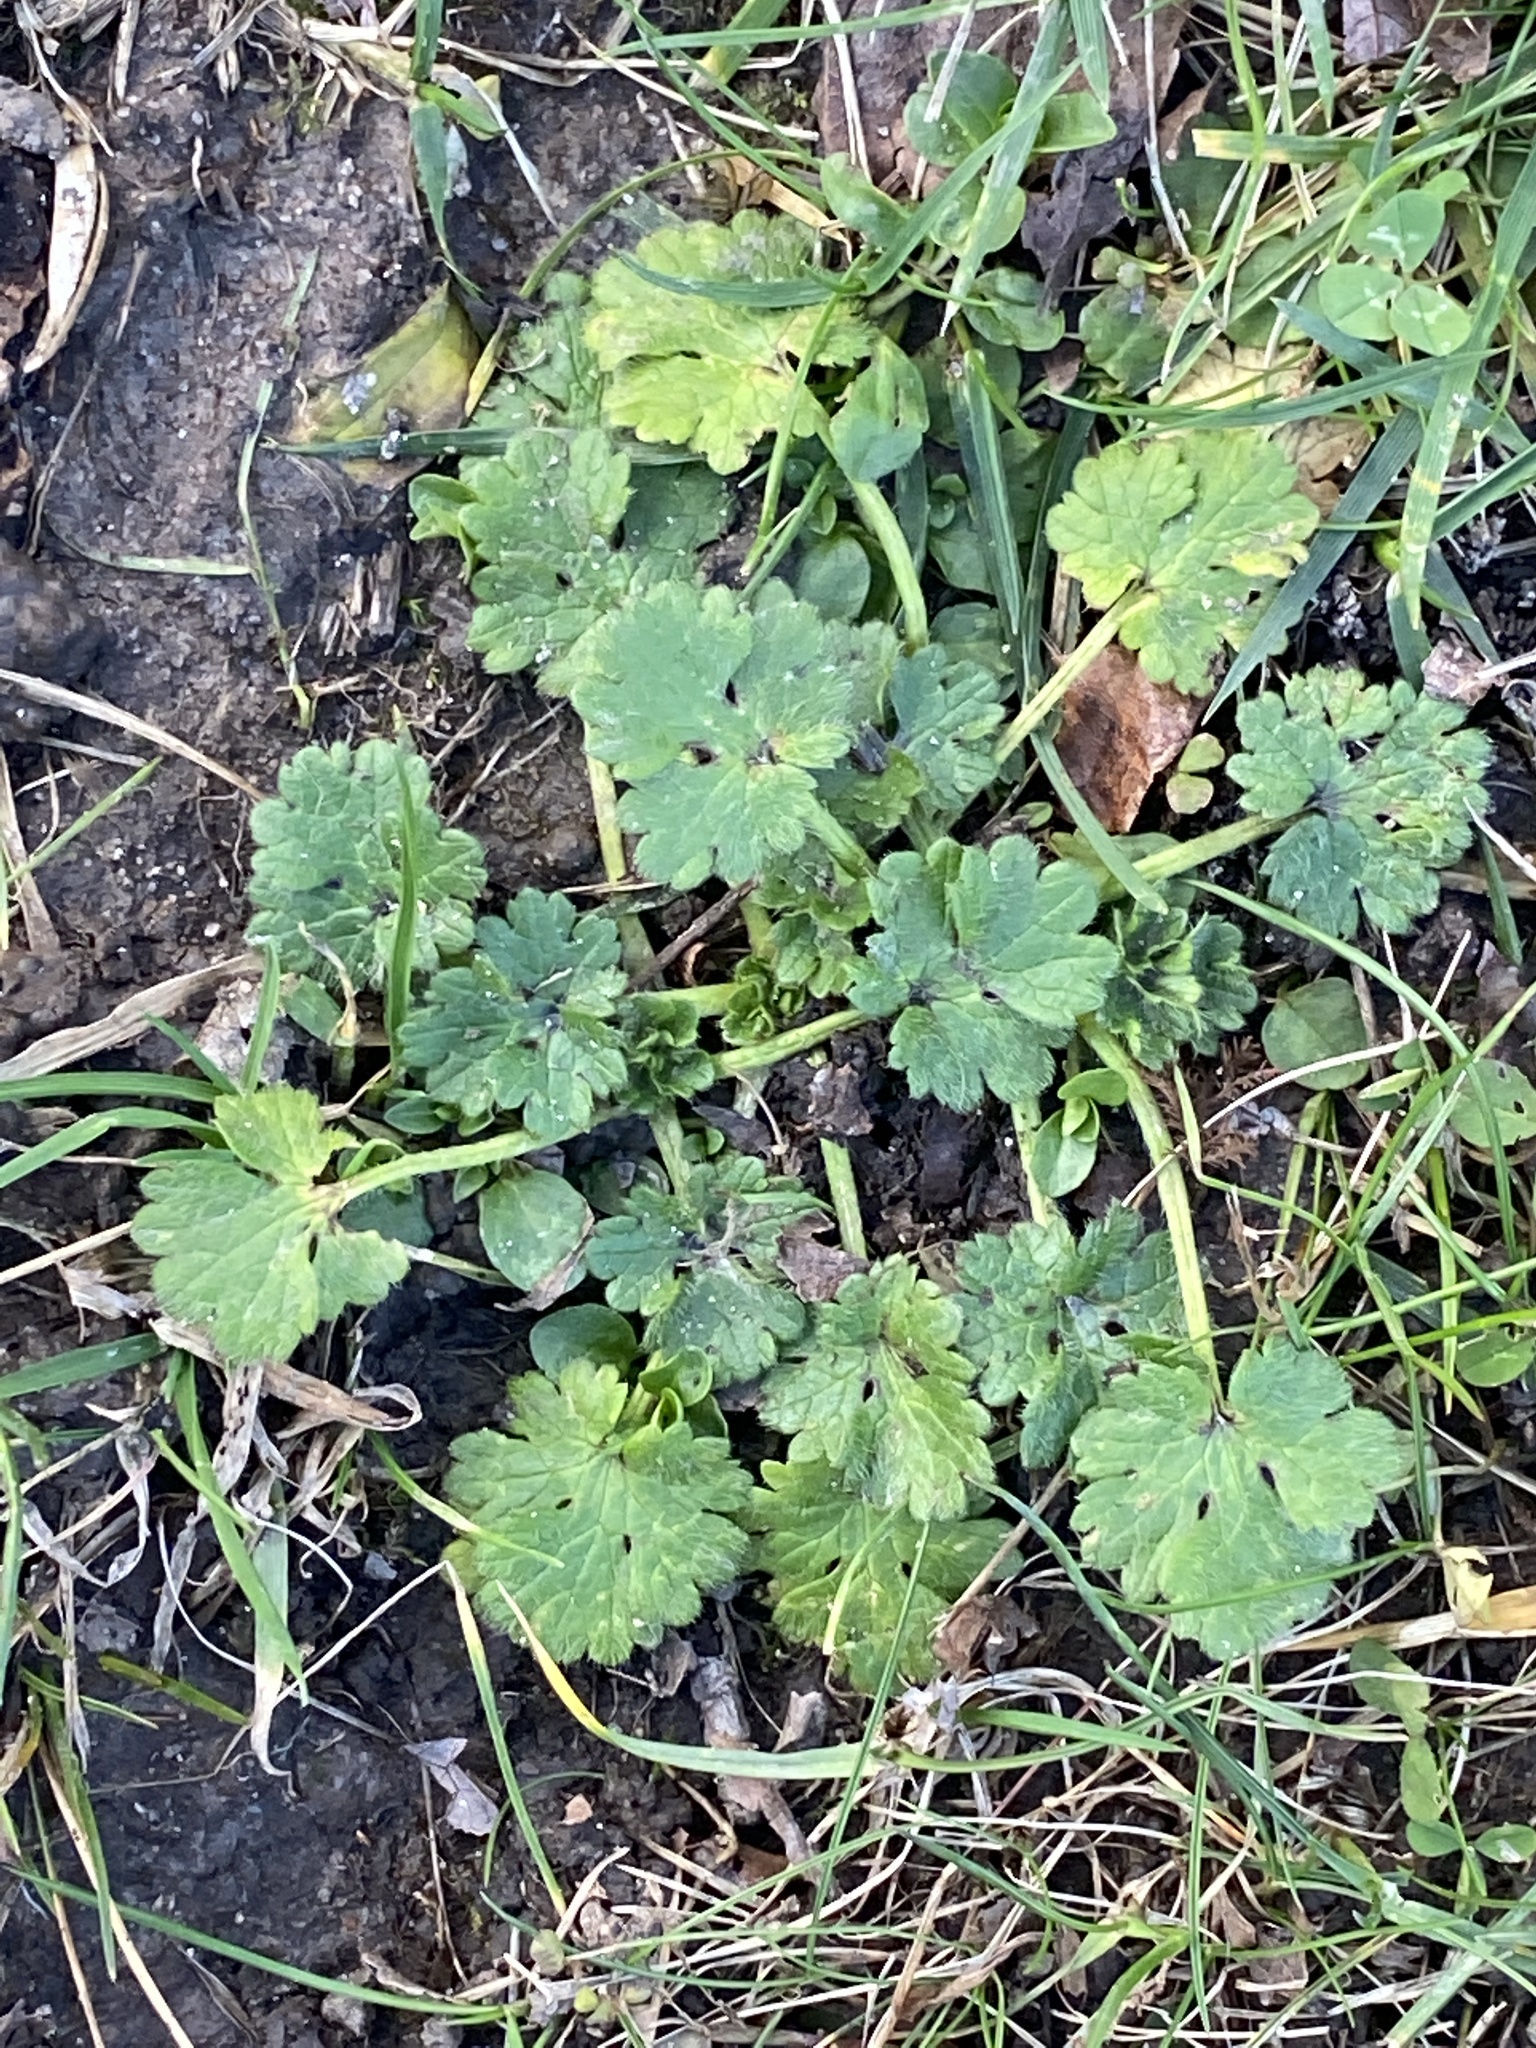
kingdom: Plantae
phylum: Tracheophyta
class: Magnoliopsida
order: Ranunculales
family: Ranunculaceae
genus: Ranunculus
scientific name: Ranunculus bulbosus
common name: Bulbous buttercup
